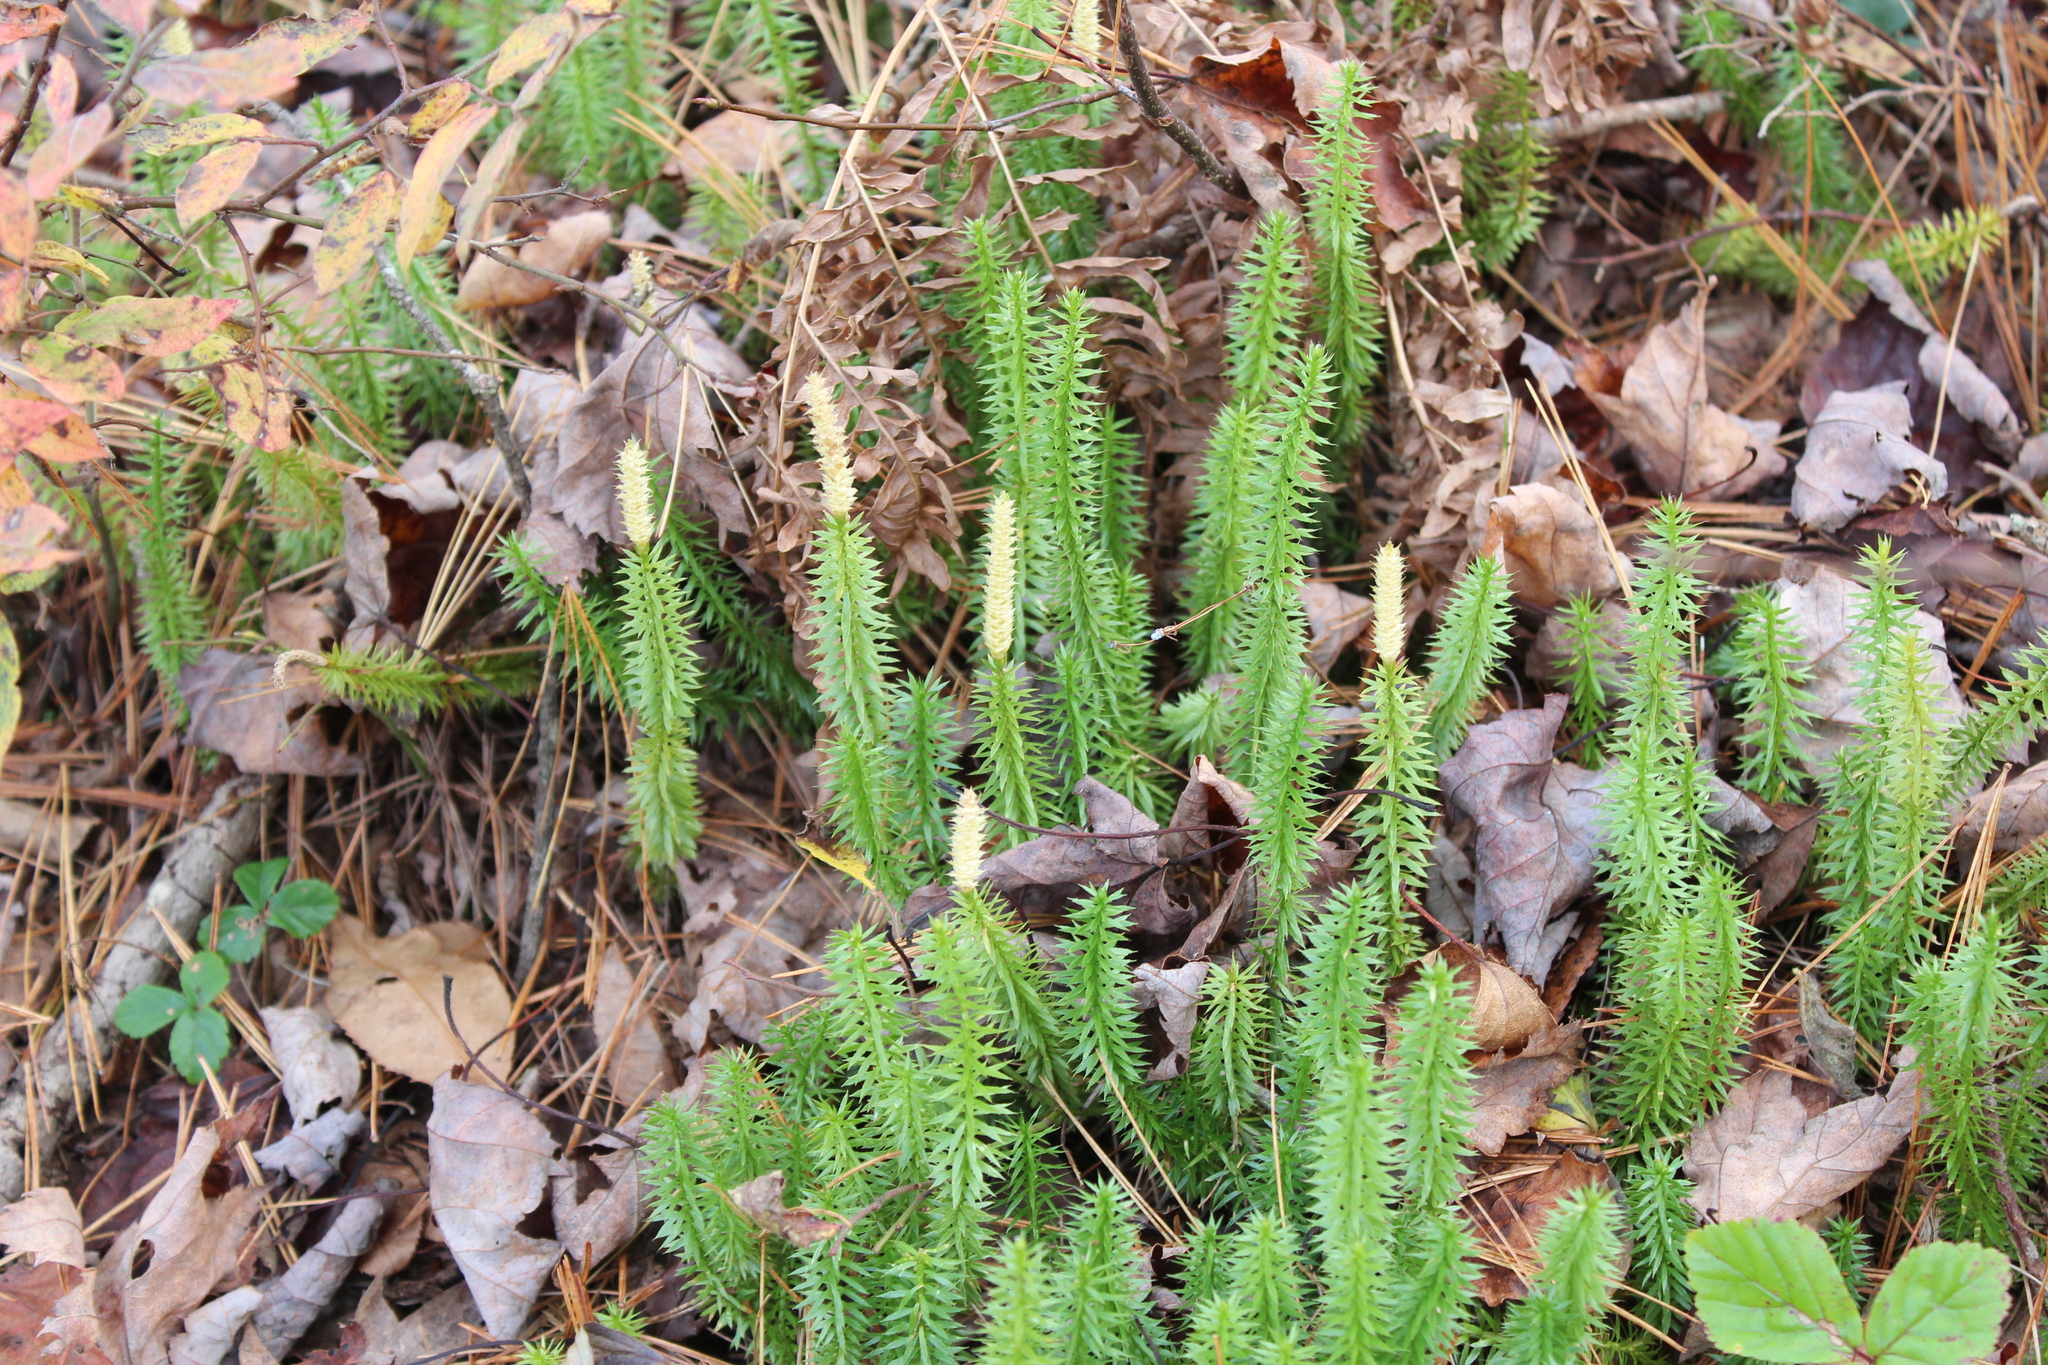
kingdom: Plantae
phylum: Tracheophyta
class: Lycopodiopsida
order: Lycopodiales
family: Lycopodiaceae
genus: Spinulum
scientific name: Spinulum annotinum
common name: Interrupted club-moss
